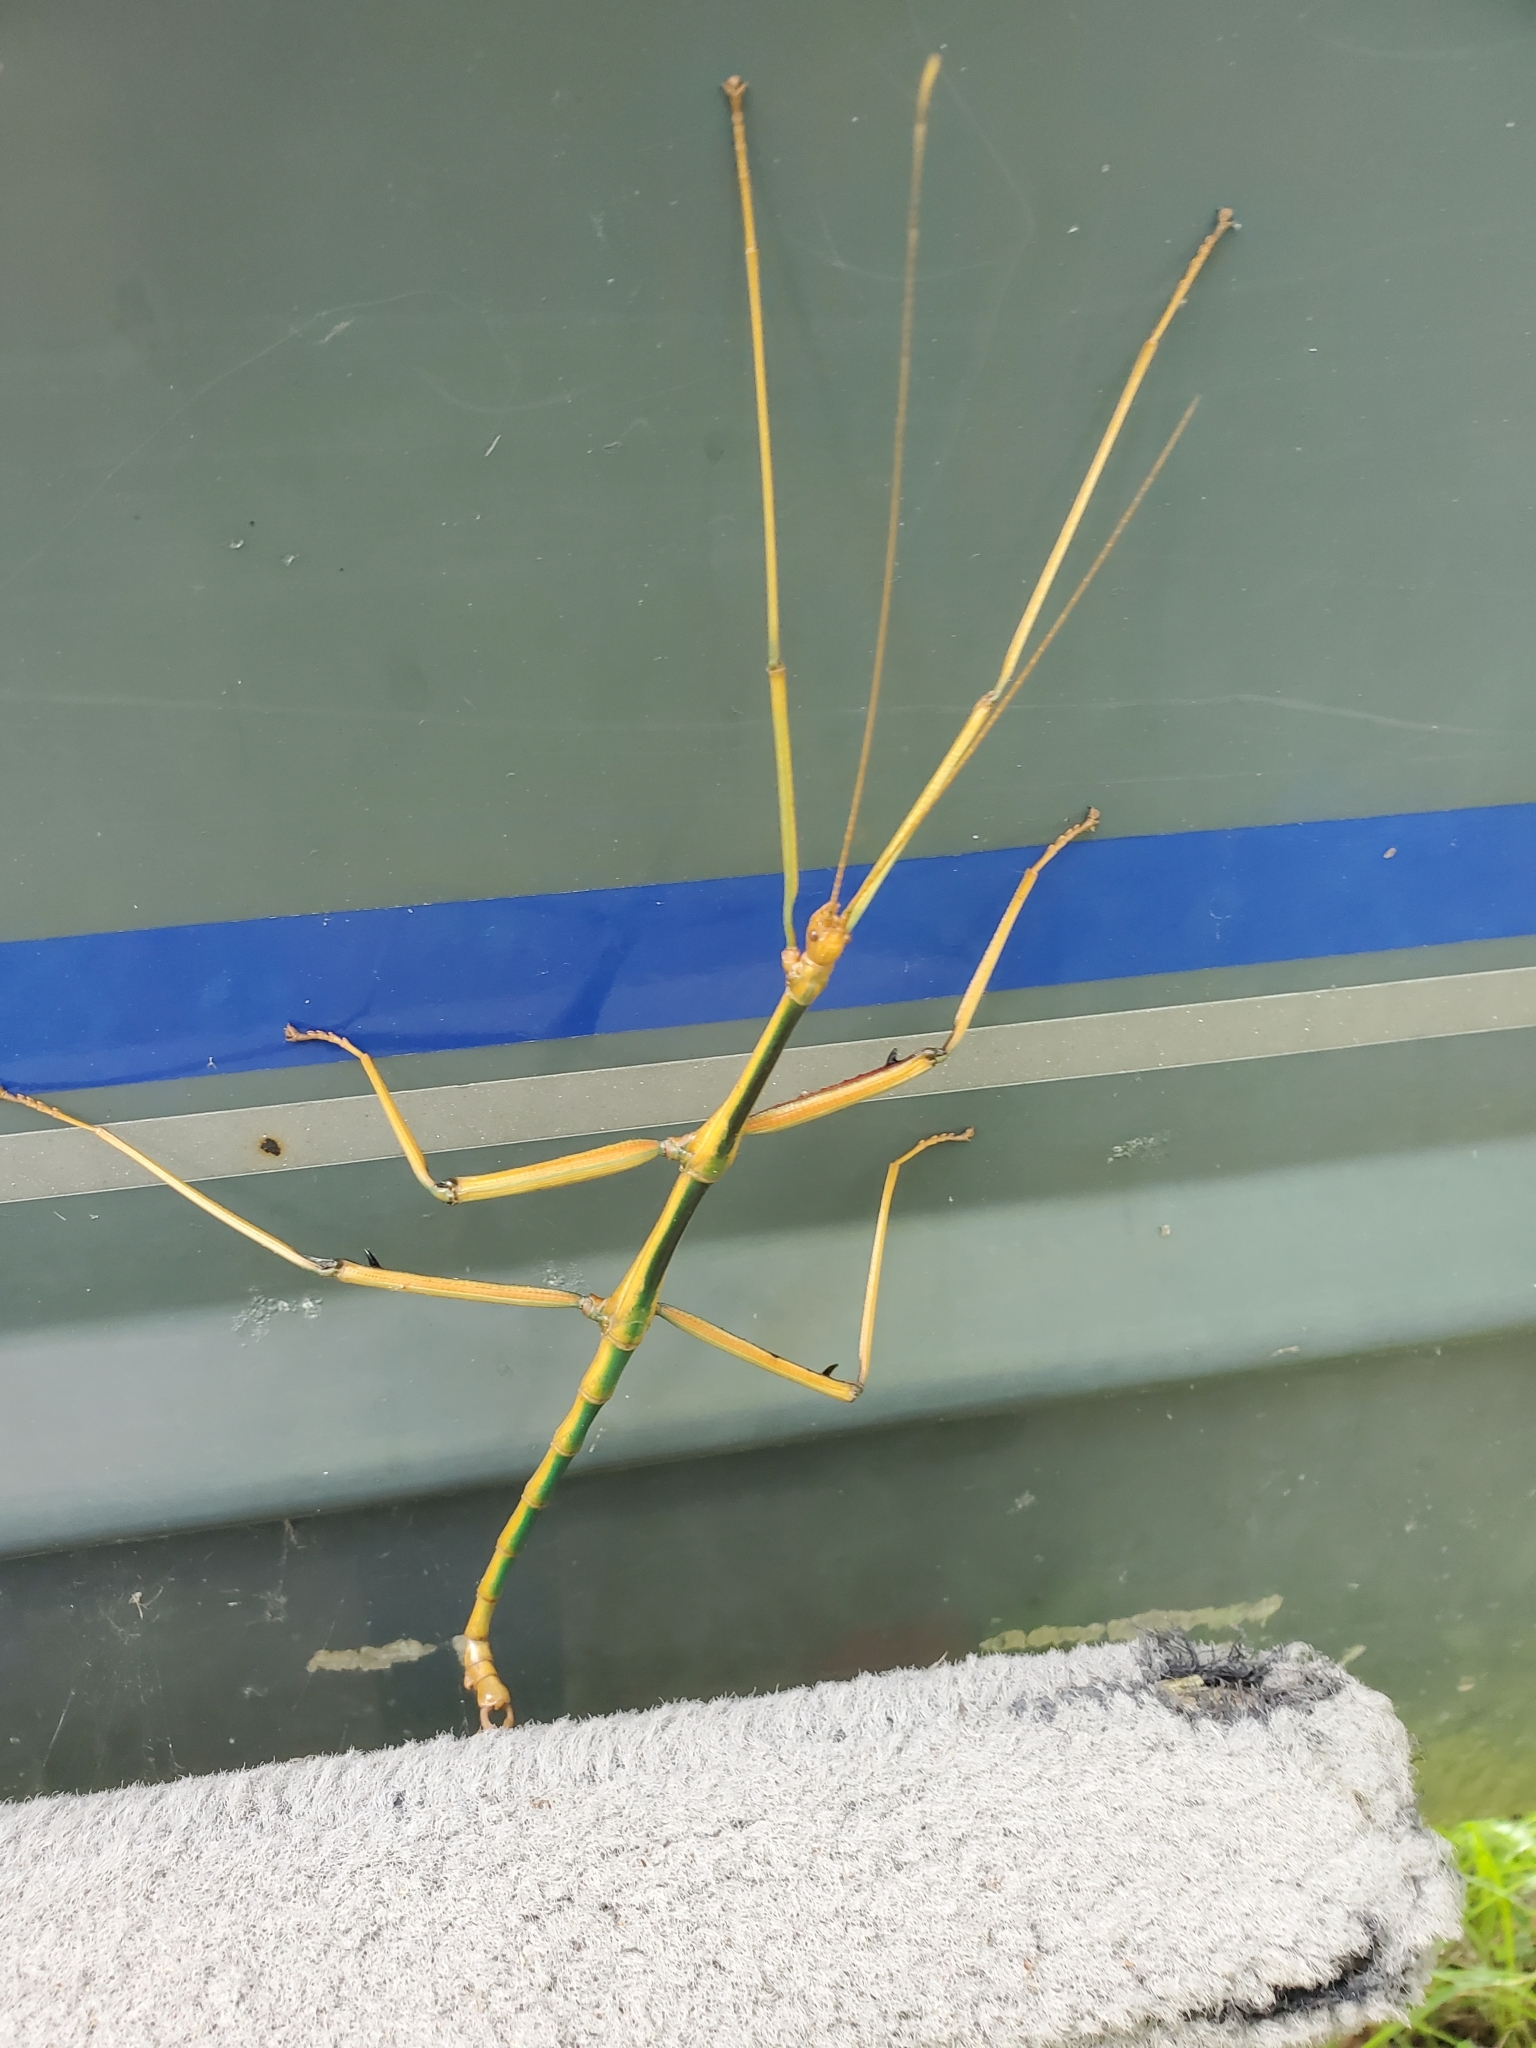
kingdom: Animalia
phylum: Arthropoda
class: Insecta
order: Phasmida
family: Diapheromeridae
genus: Megaphasma
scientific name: Megaphasma denticrus
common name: Giant walkingstick
